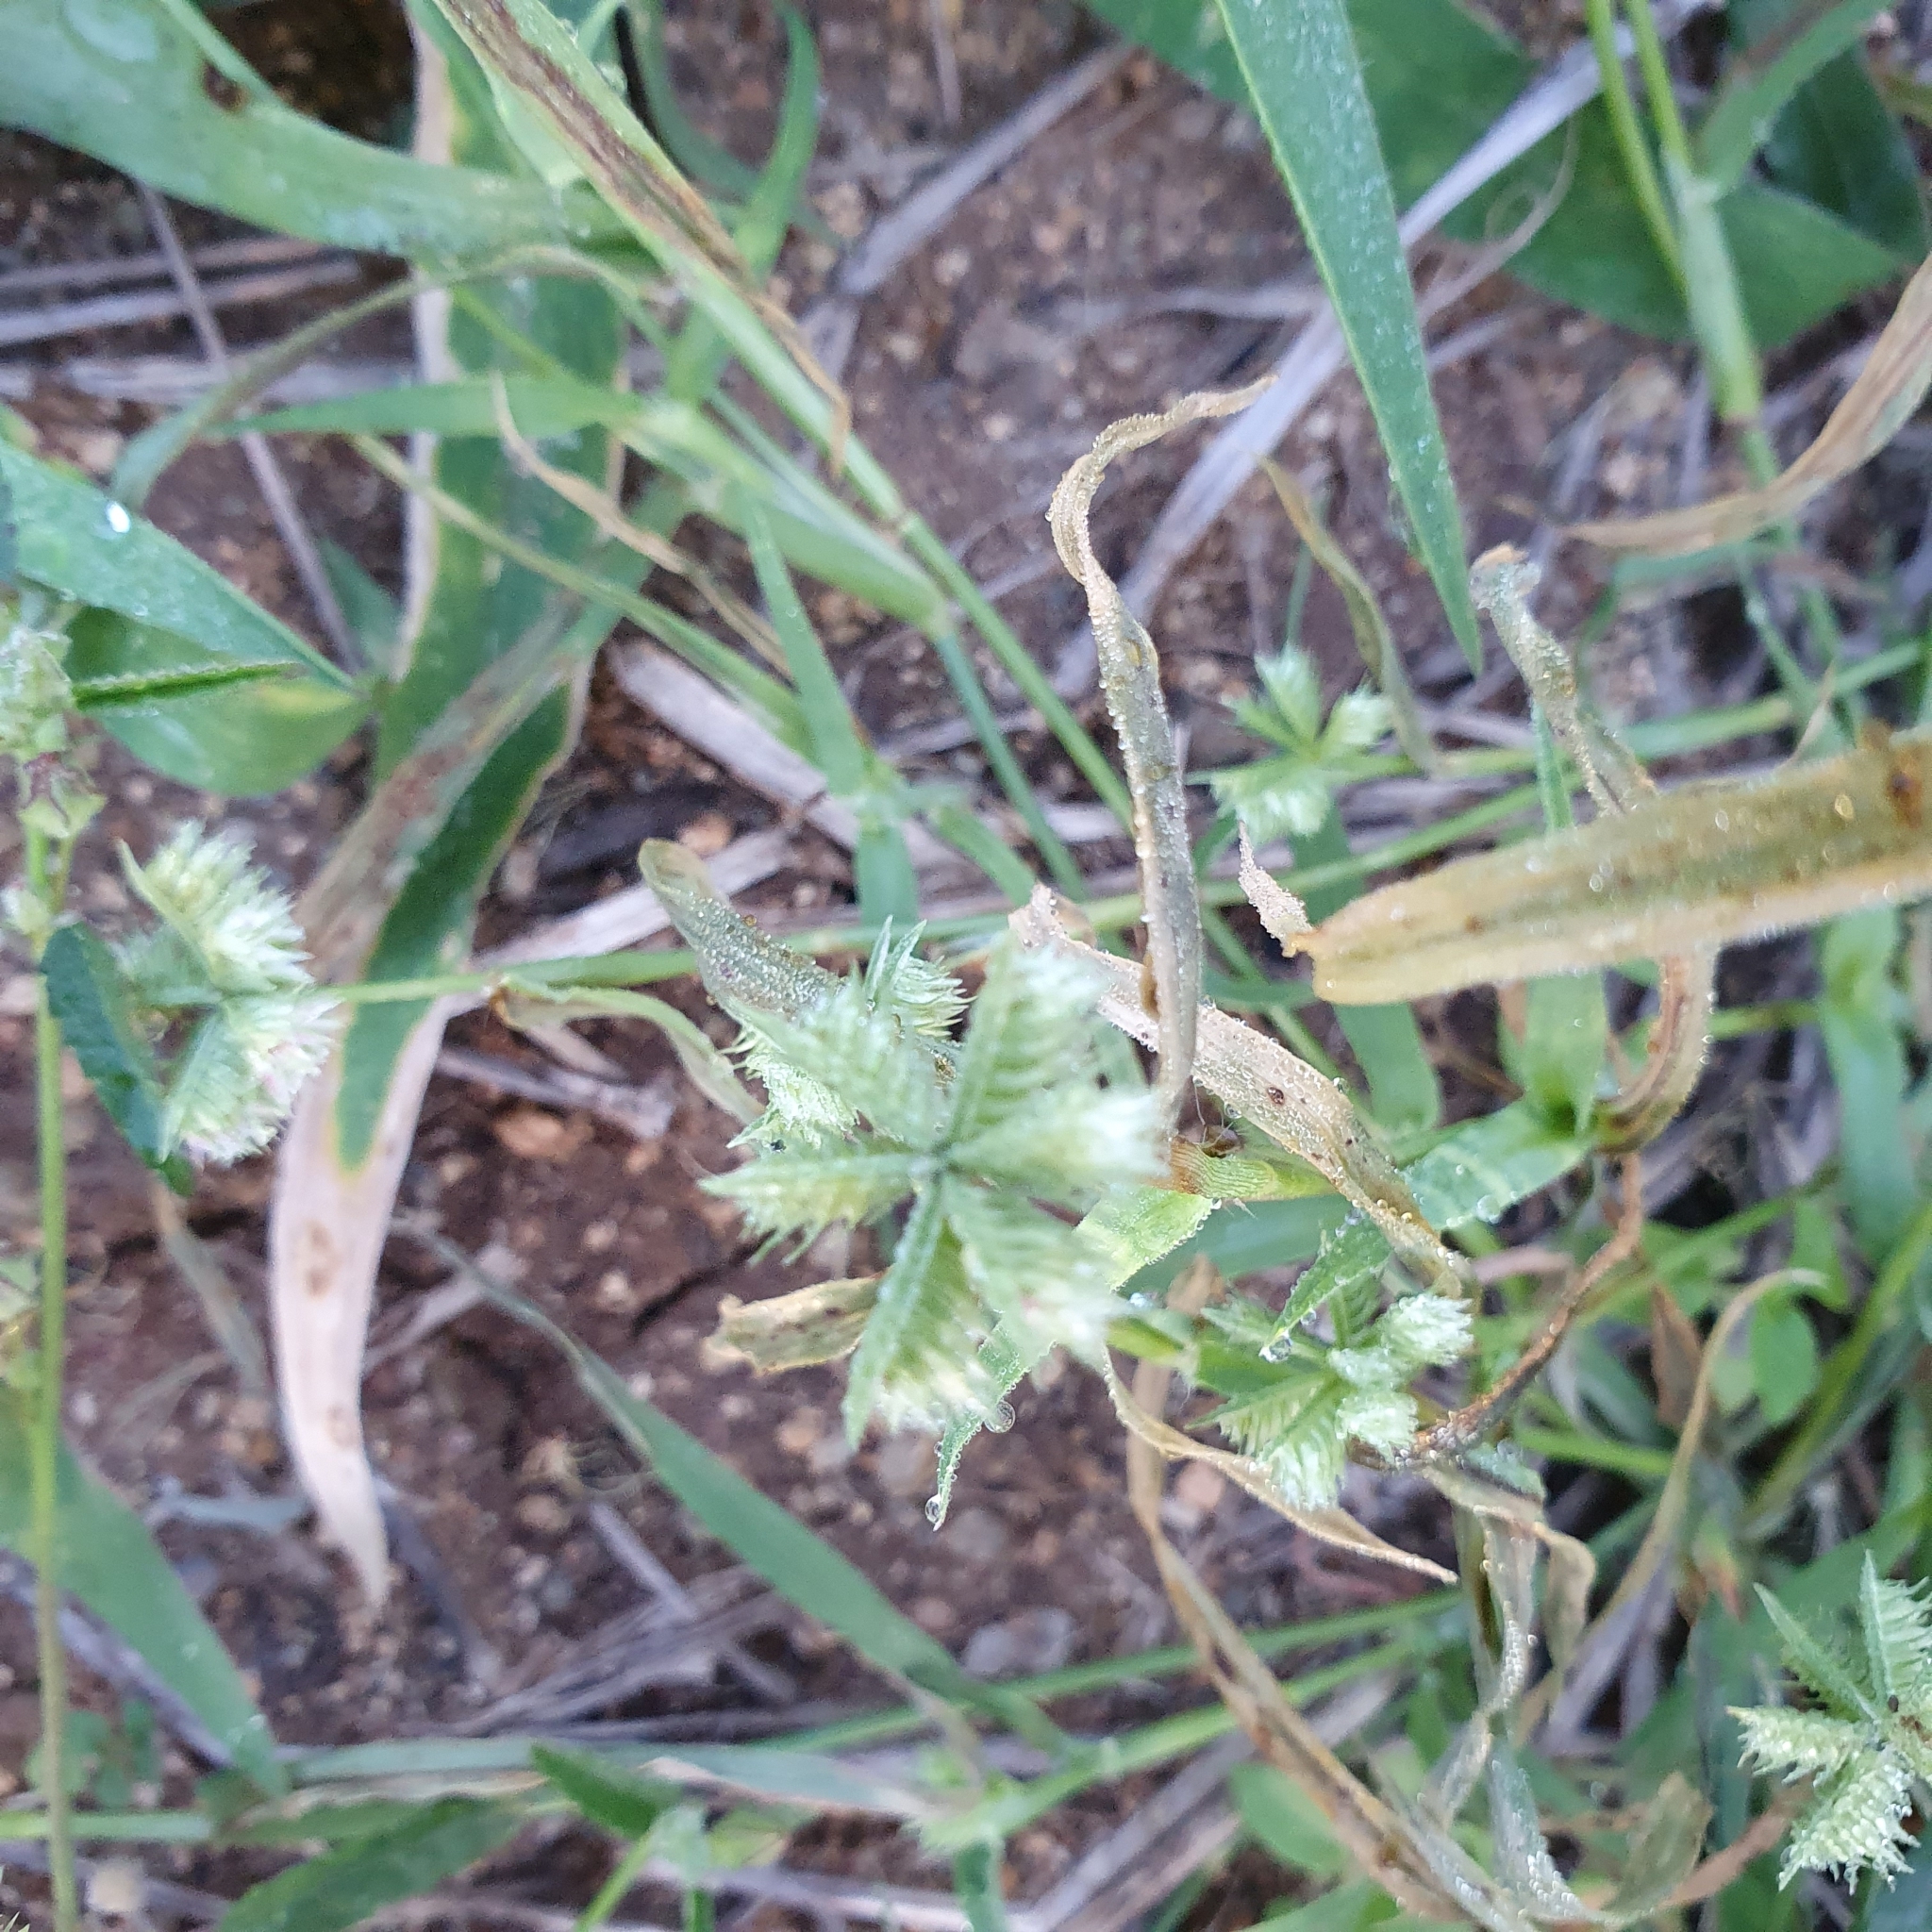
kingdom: Plantae
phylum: Tracheophyta
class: Liliopsida
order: Poales
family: Poaceae
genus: Dactyloctenium
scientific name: Dactyloctenium radulans
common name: Button-grass
